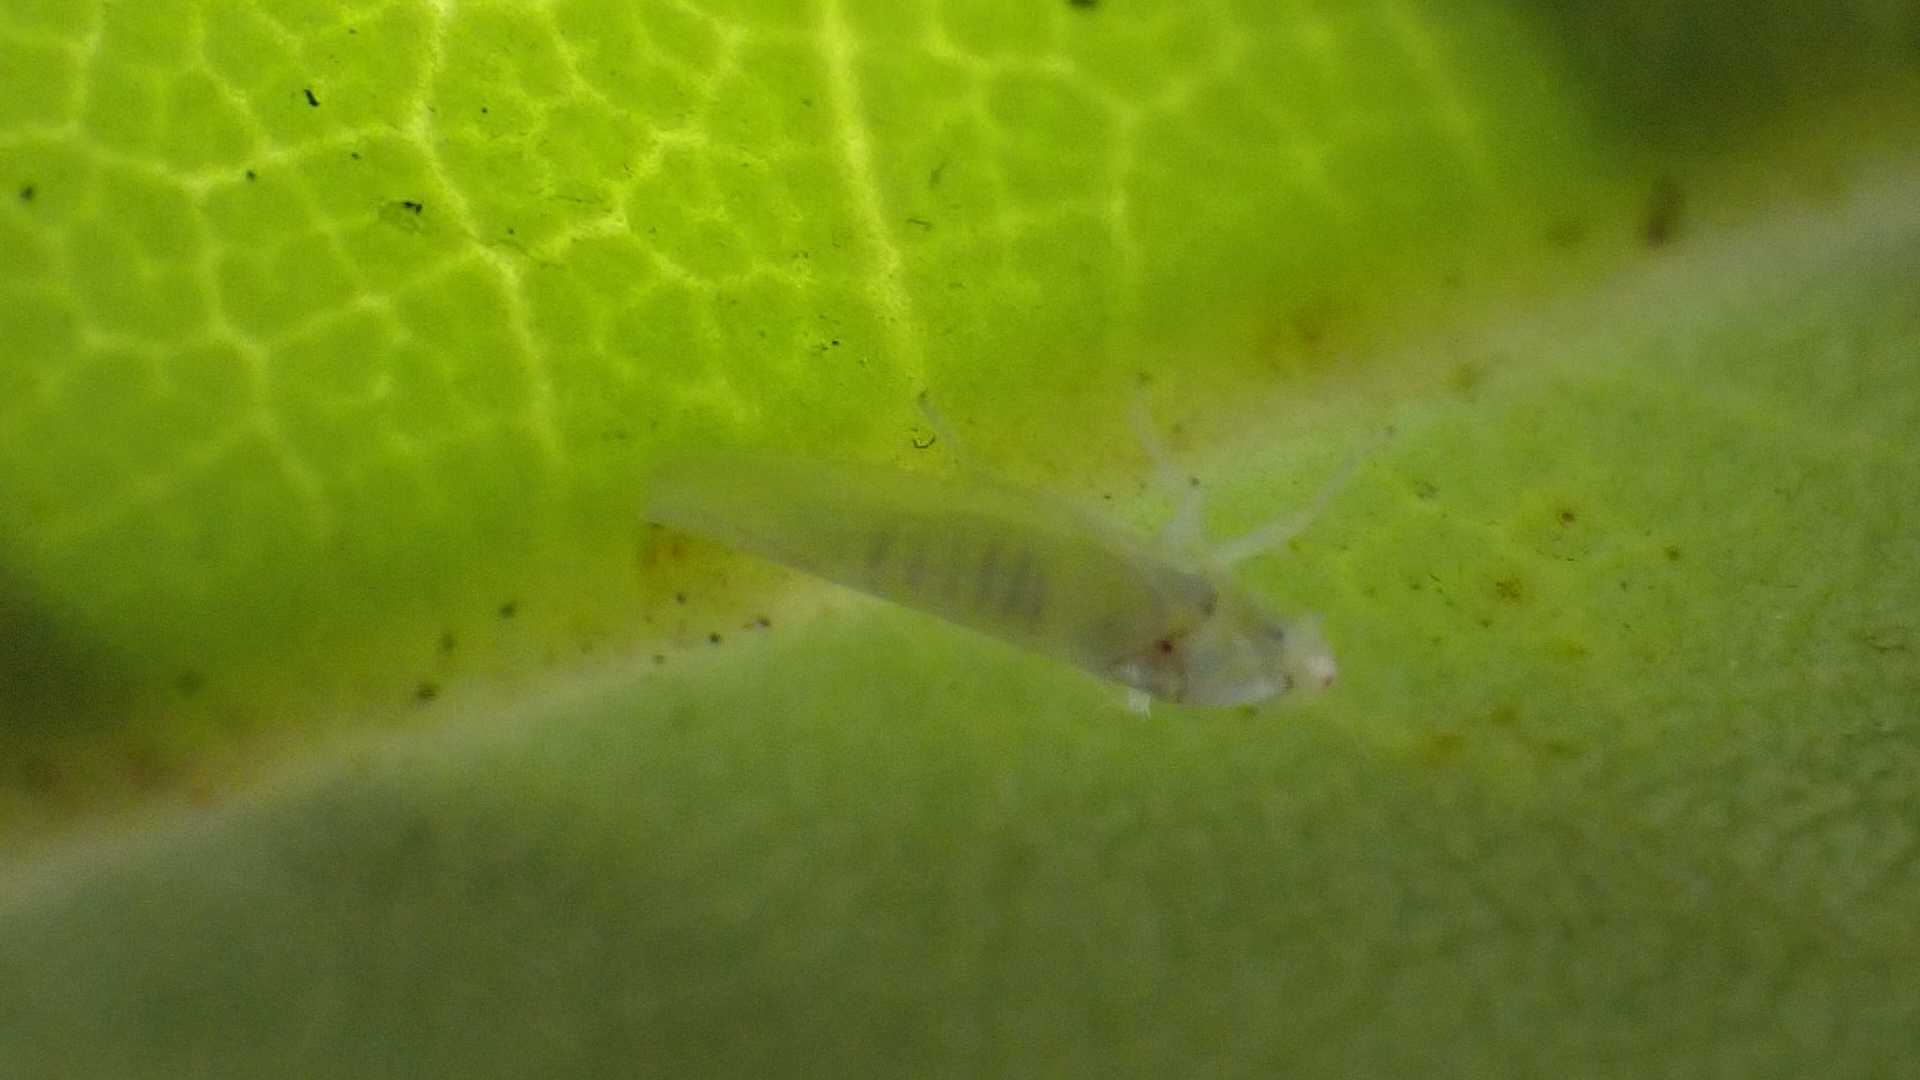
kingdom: Animalia
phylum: Arthropoda
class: Insecta
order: Hemiptera
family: Cicadellidae
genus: Zygina
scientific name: Zygina nivea
